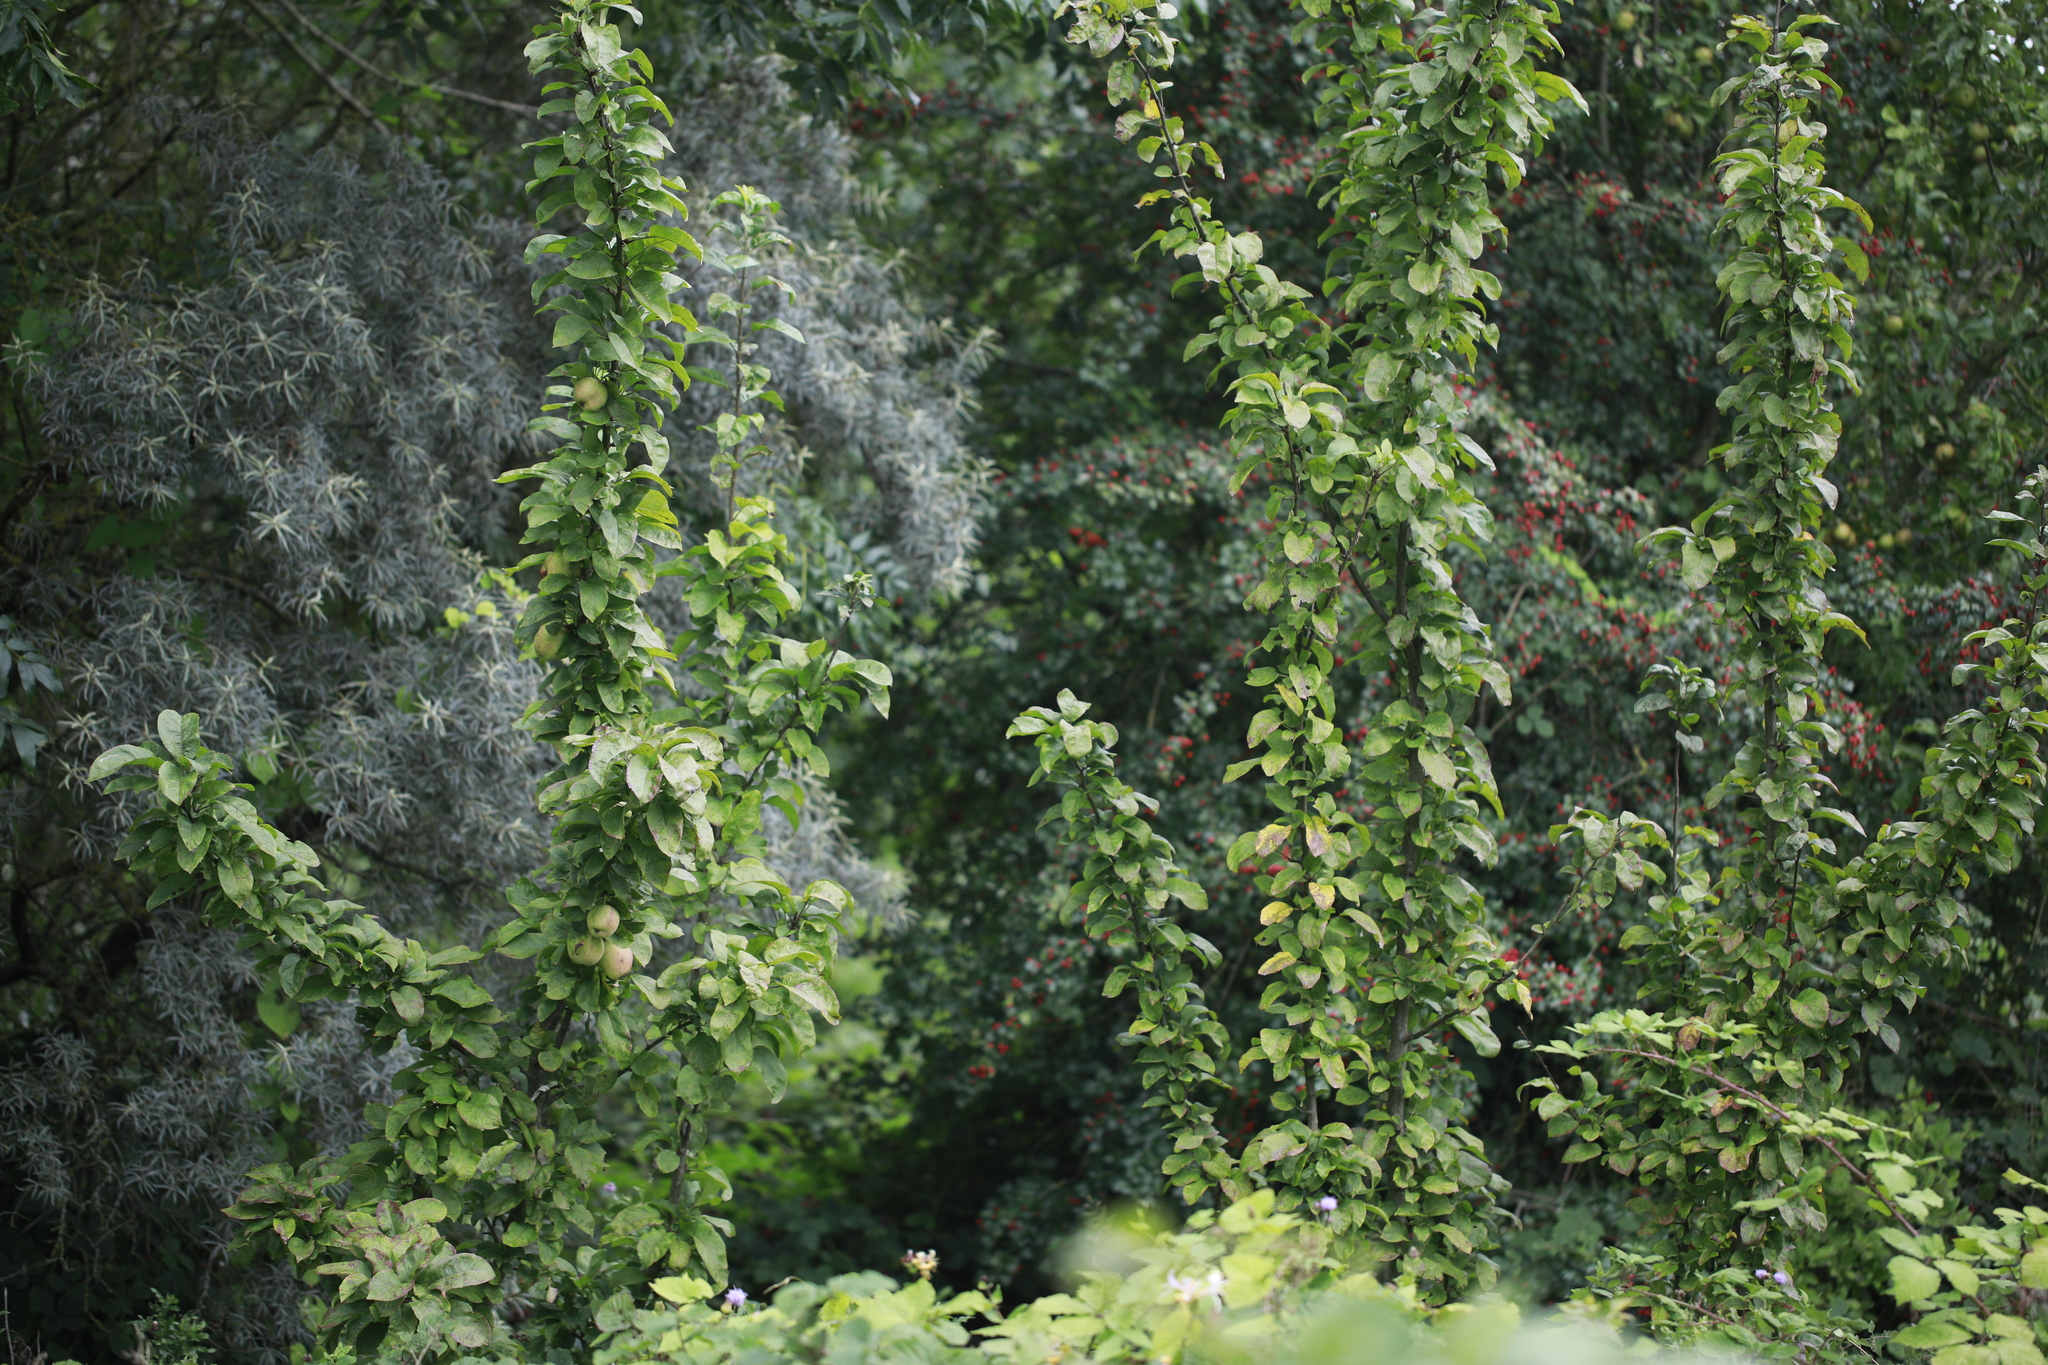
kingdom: Plantae
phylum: Tracheophyta
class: Magnoliopsida
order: Rosales
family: Rosaceae
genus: Malus
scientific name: Malus domestica
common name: Apple
